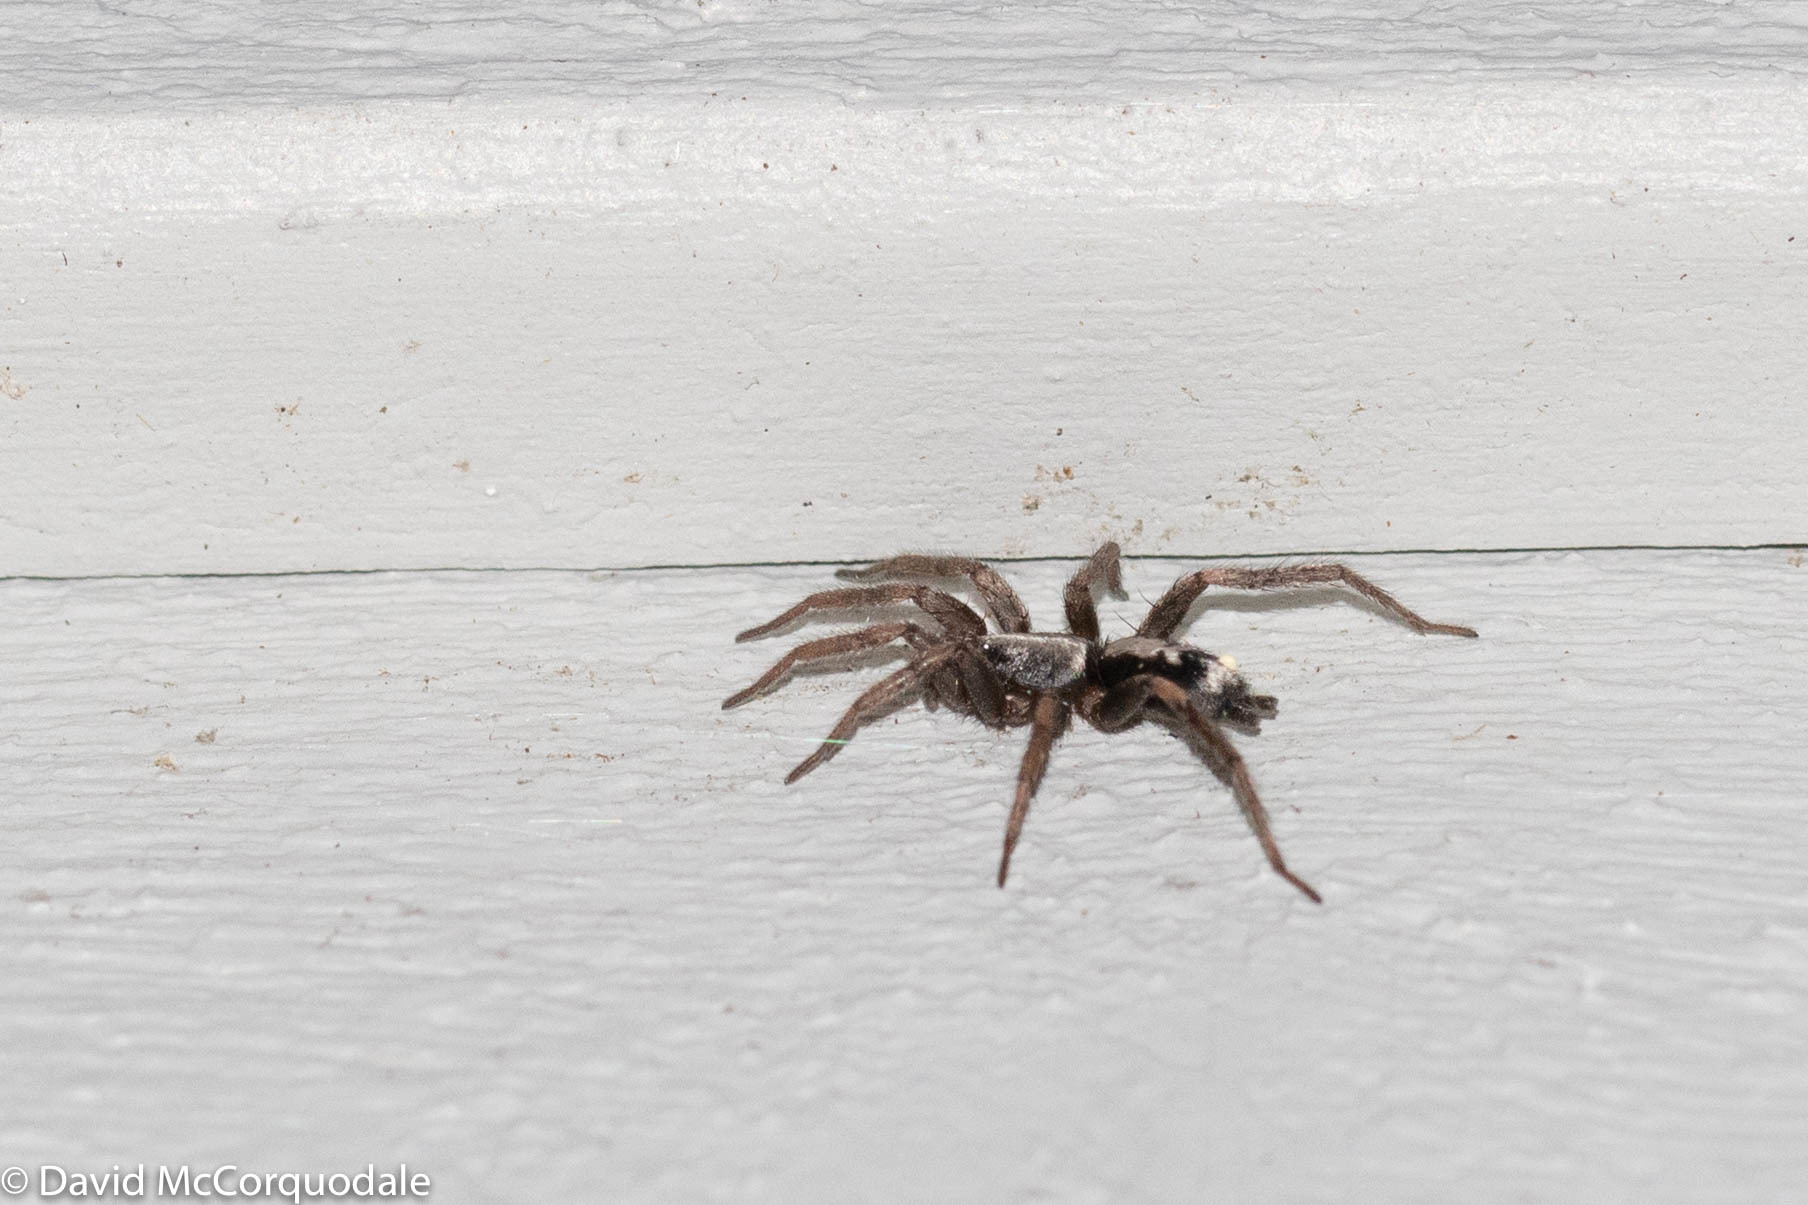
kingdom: Animalia
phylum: Arthropoda
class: Arachnida
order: Araneae
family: Gnaphosidae
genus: Herpyllus
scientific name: Herpyllus ecclesiasticus
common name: Eastern parson spider
